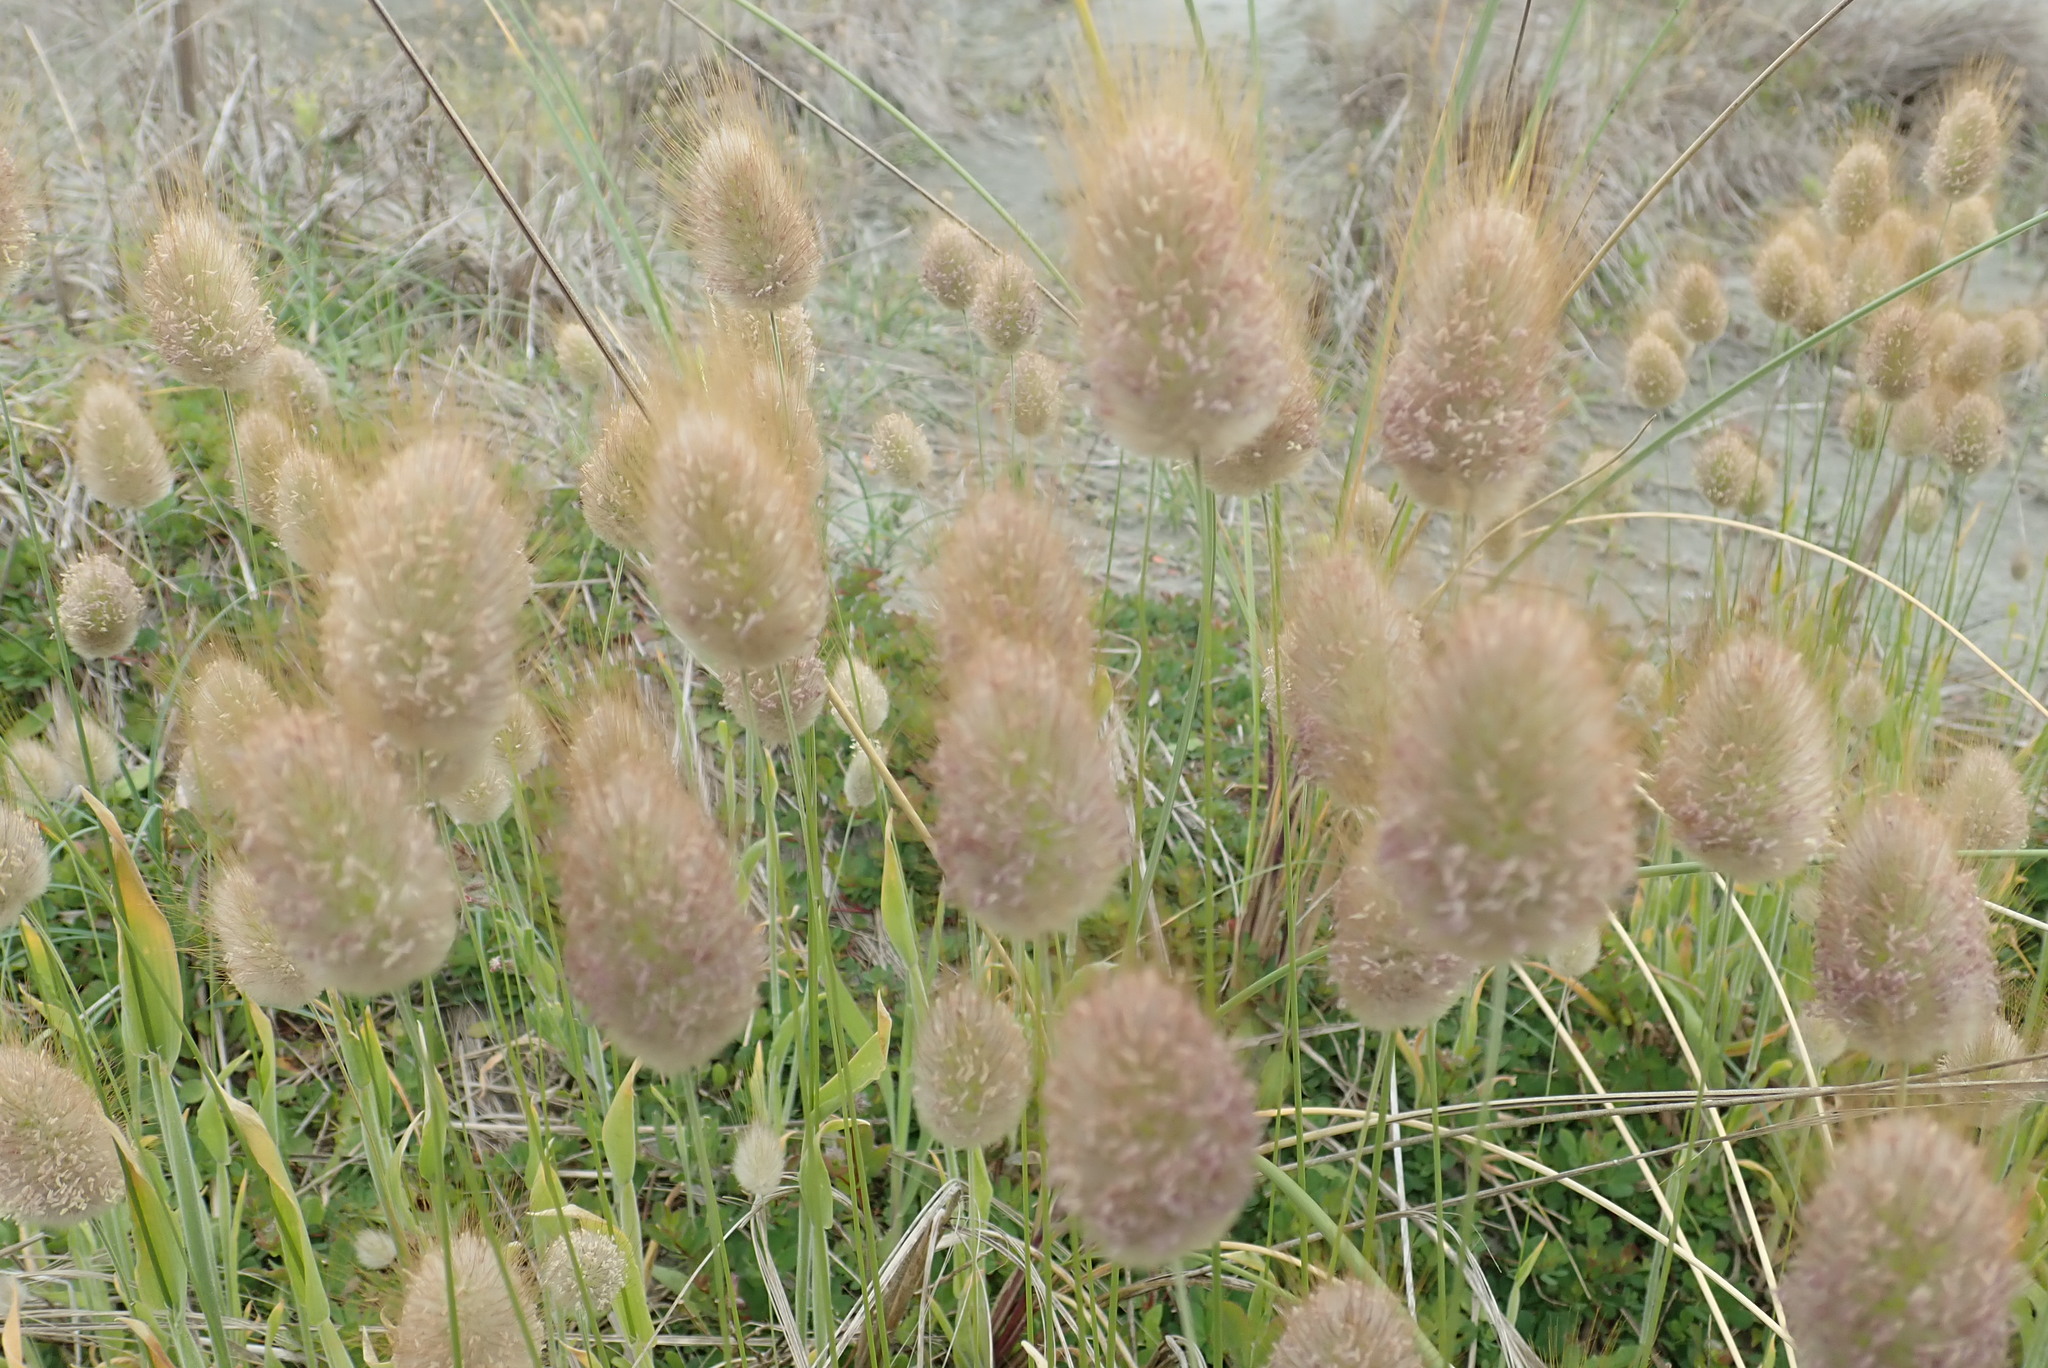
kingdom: Plantae
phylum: Tracheophyta
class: Liliopsida
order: Poales
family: Poaceae
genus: Lagurus
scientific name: Lagurus ovatus
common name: Hare's-tail
